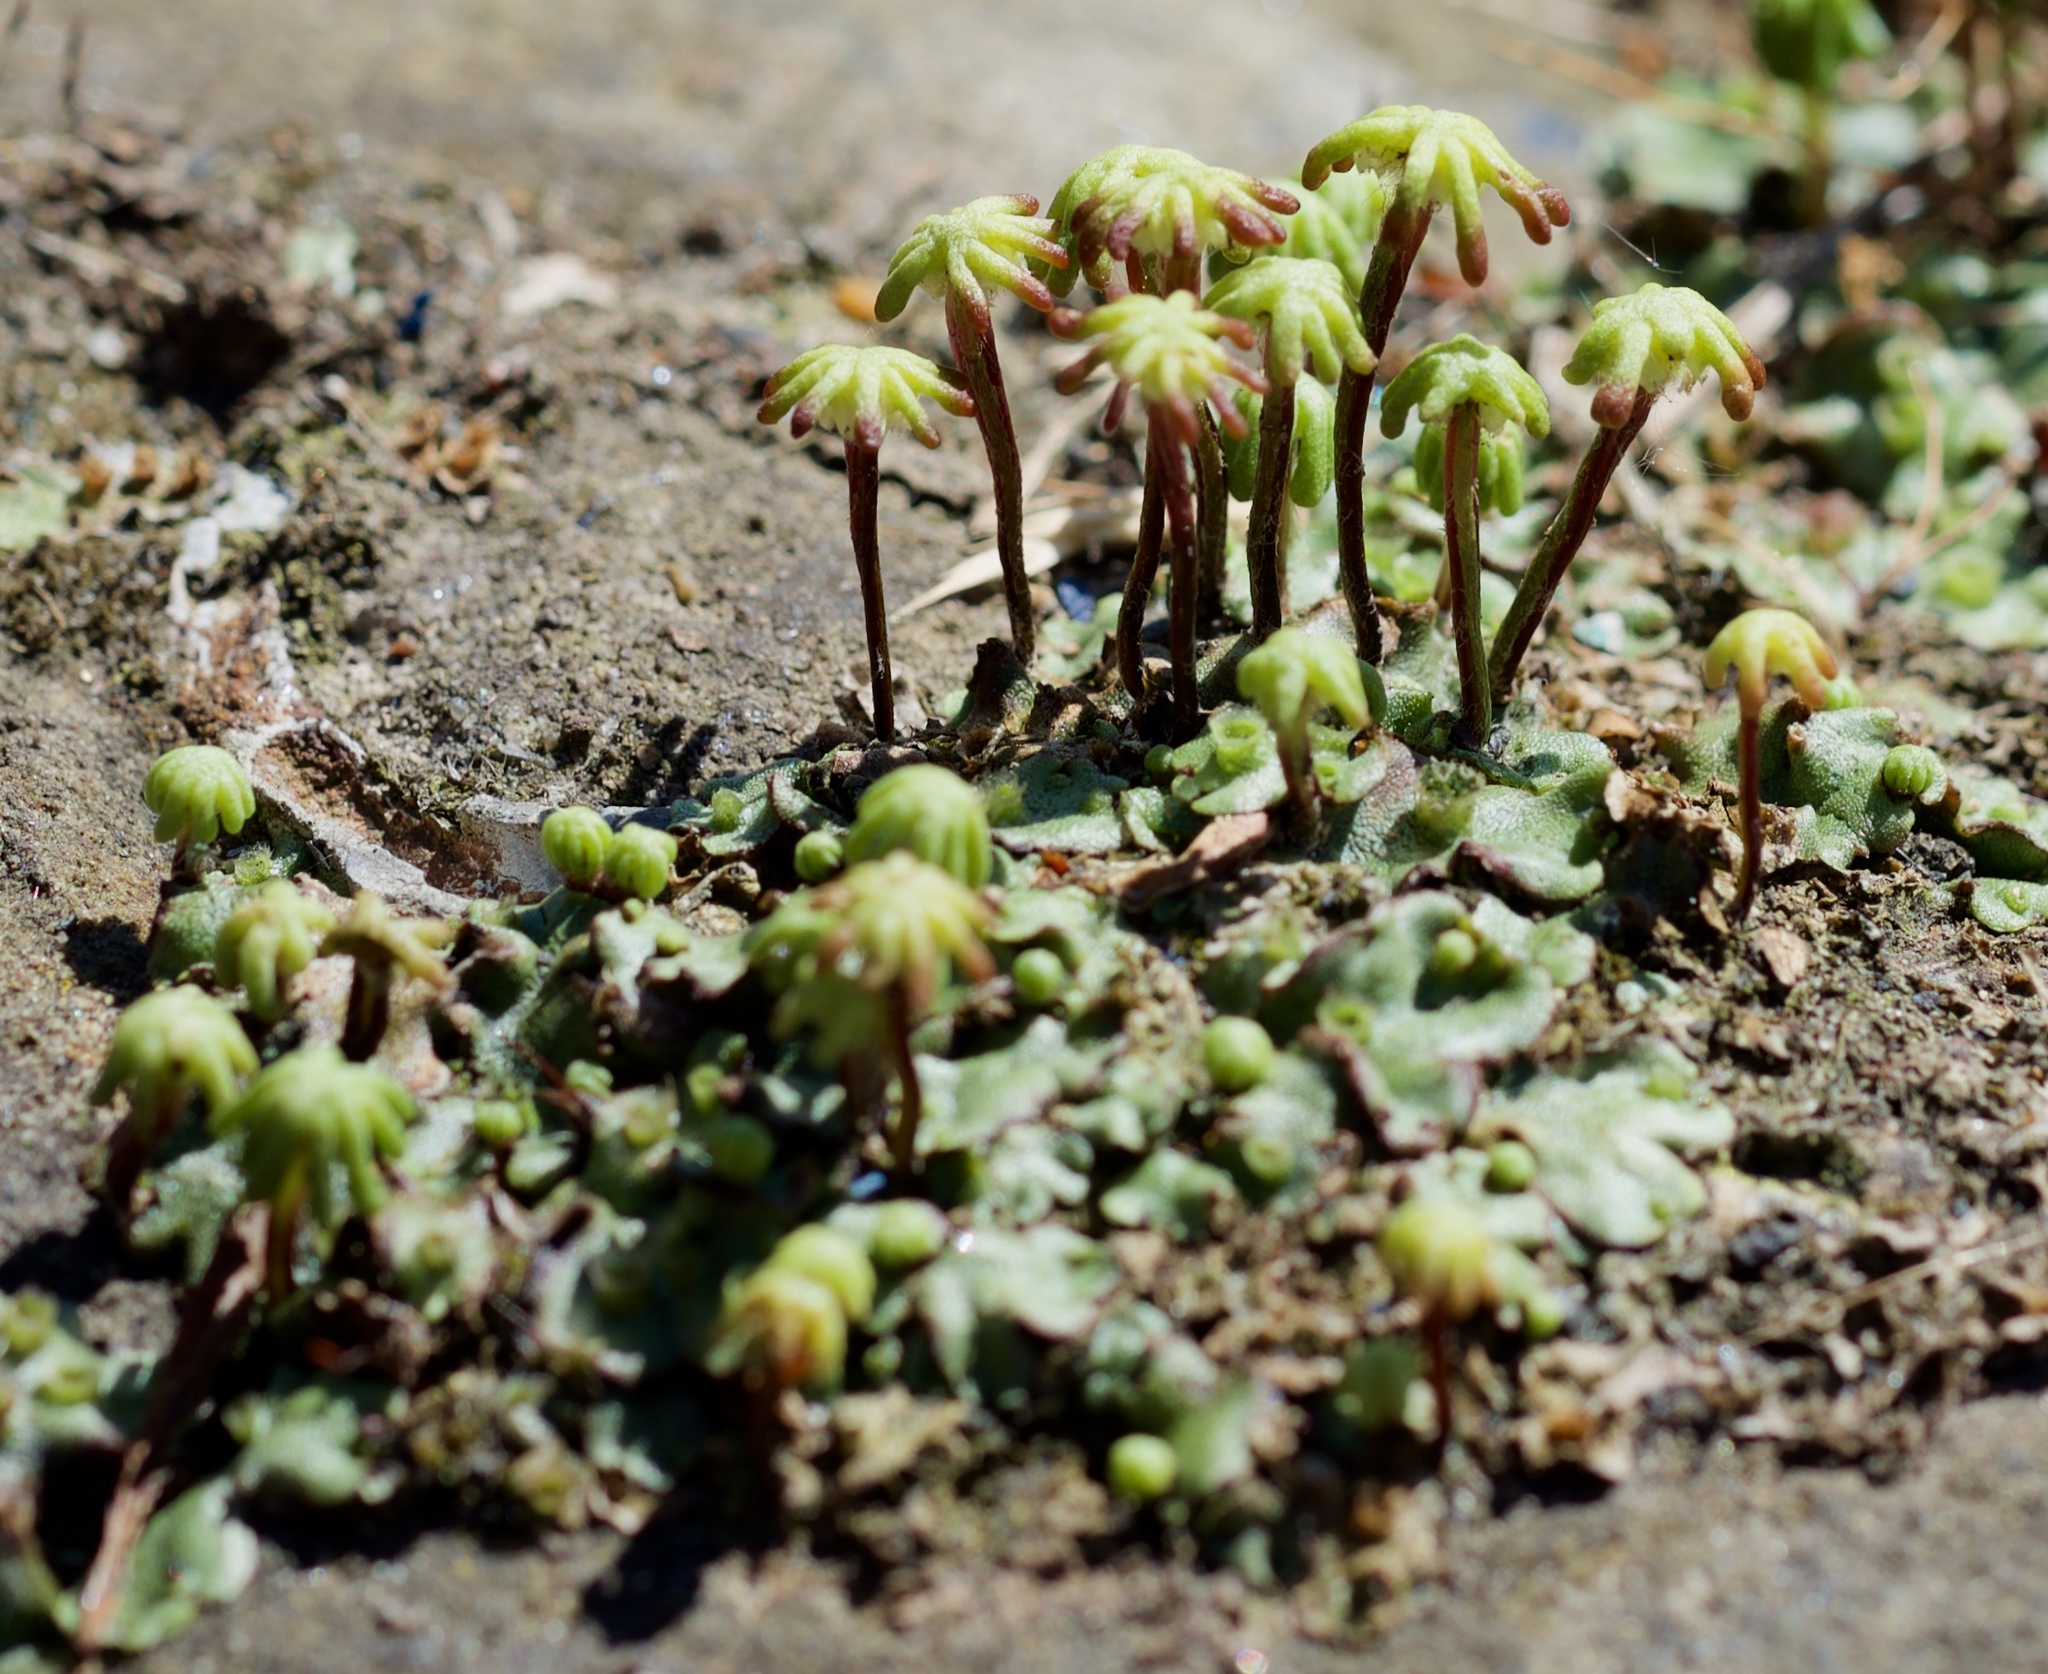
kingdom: Plantae
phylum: Marchantiophyta
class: Marchantiopsida
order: Marchantiales
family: Marchantiaceae
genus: Marchantia
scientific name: Marchantia polymorpha
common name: Common liverwort
